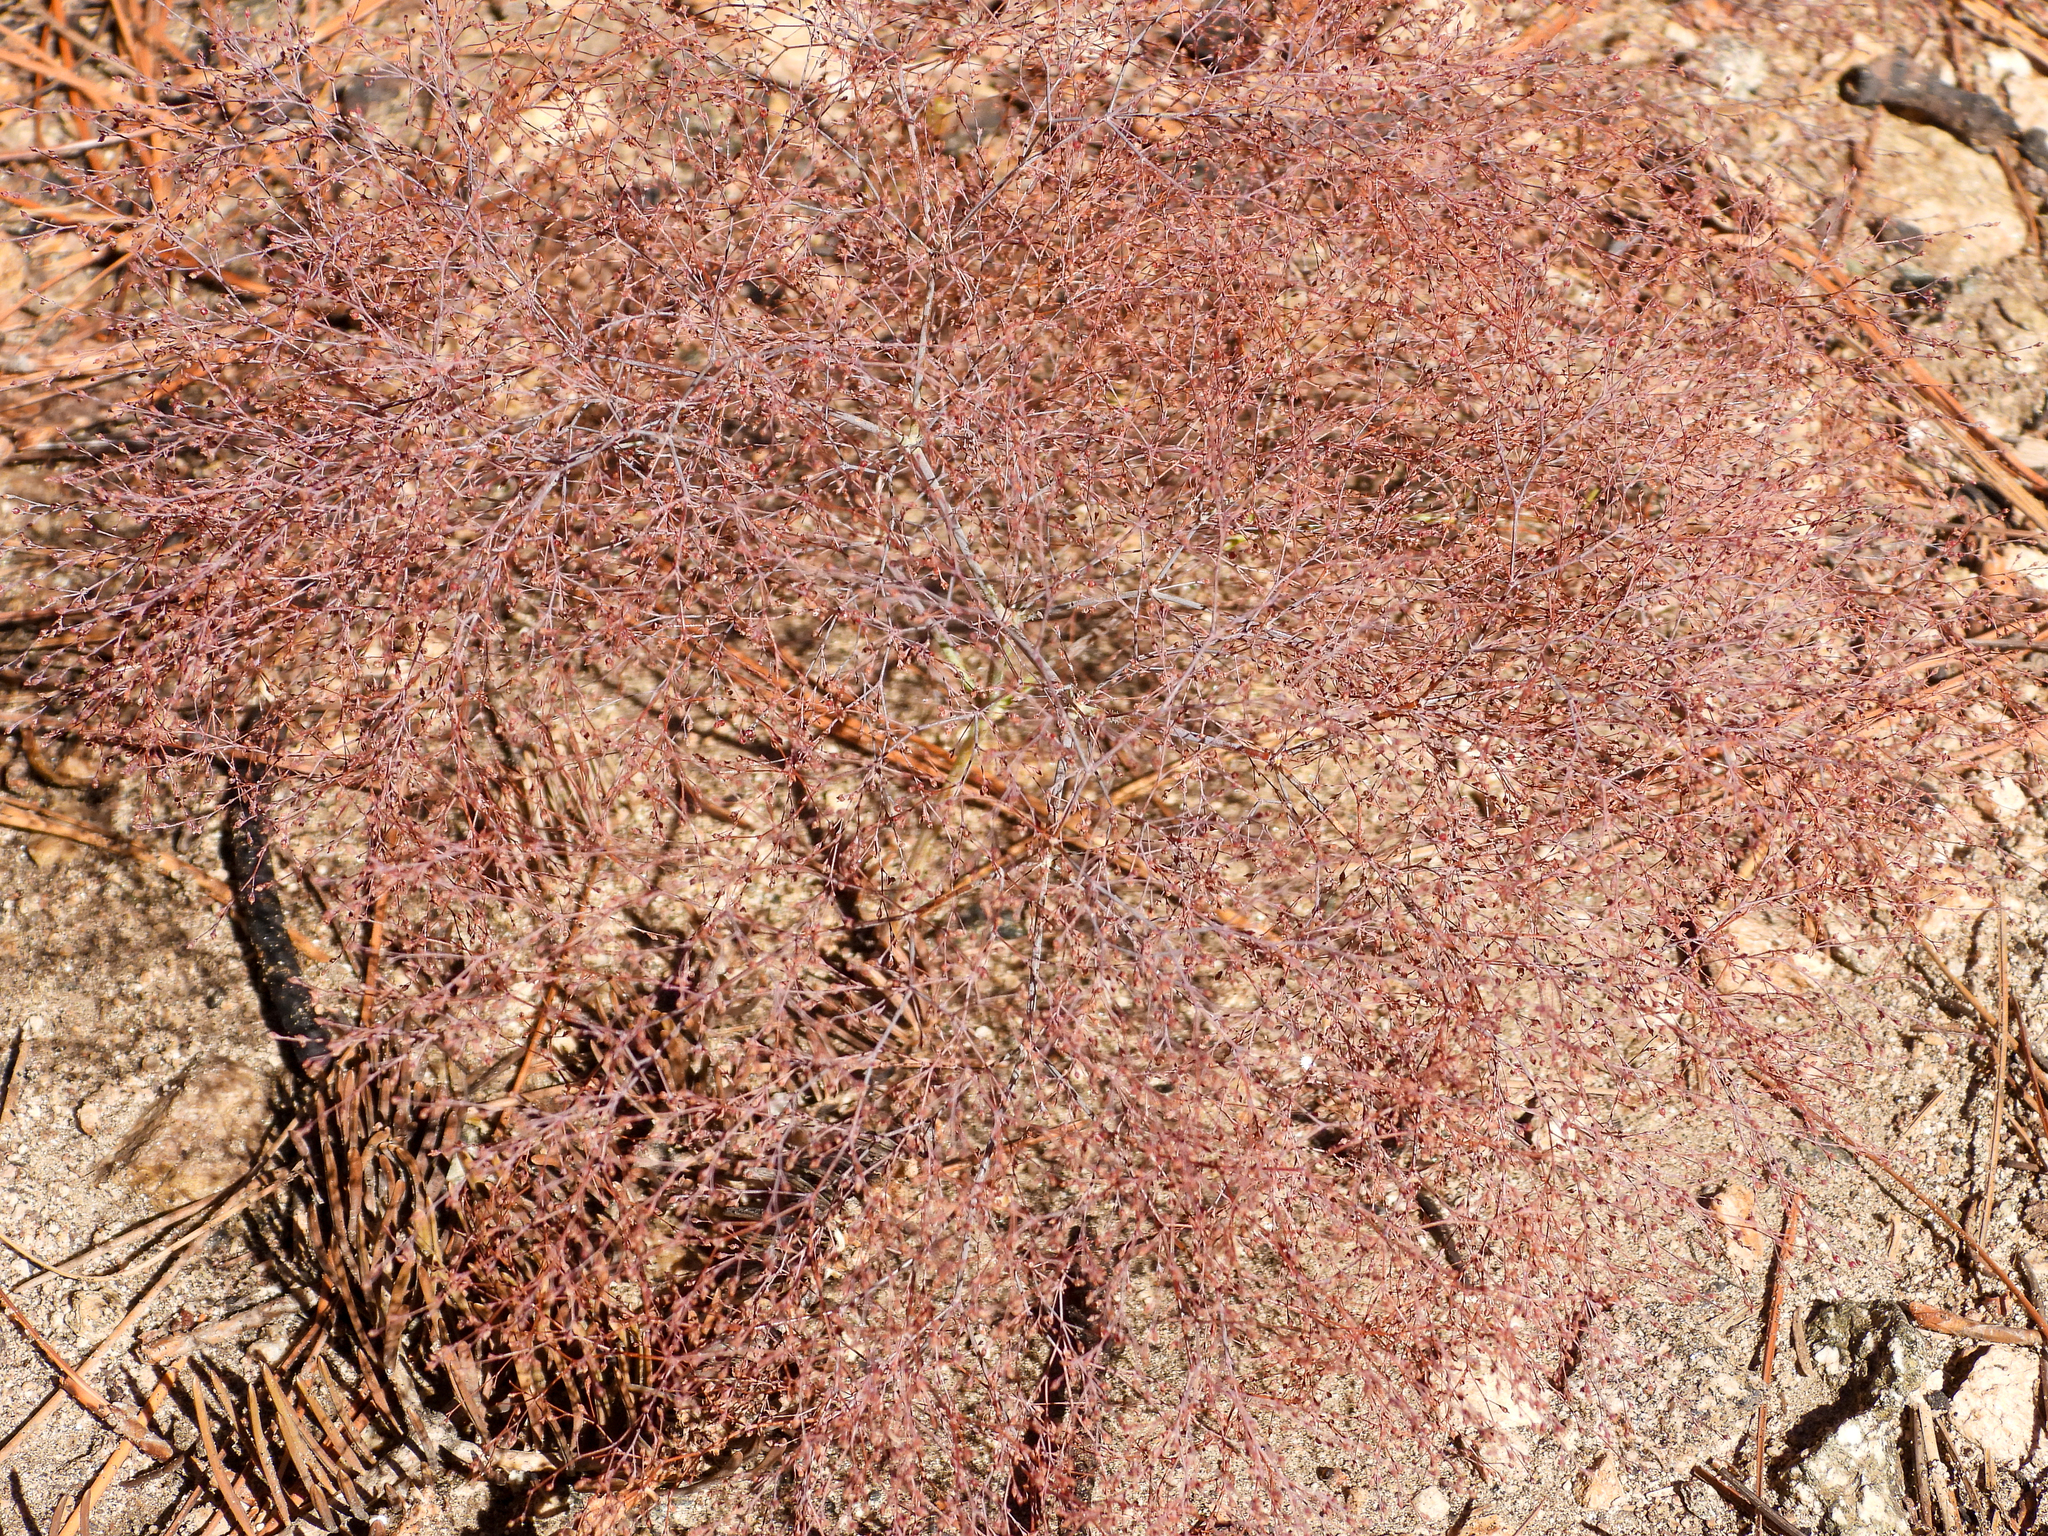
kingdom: Plantae
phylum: Tracheophyta
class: Magnoliopsida
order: Caryophyllales
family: Polygonaceae
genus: Eriogonum
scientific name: Eriogonum parishii
